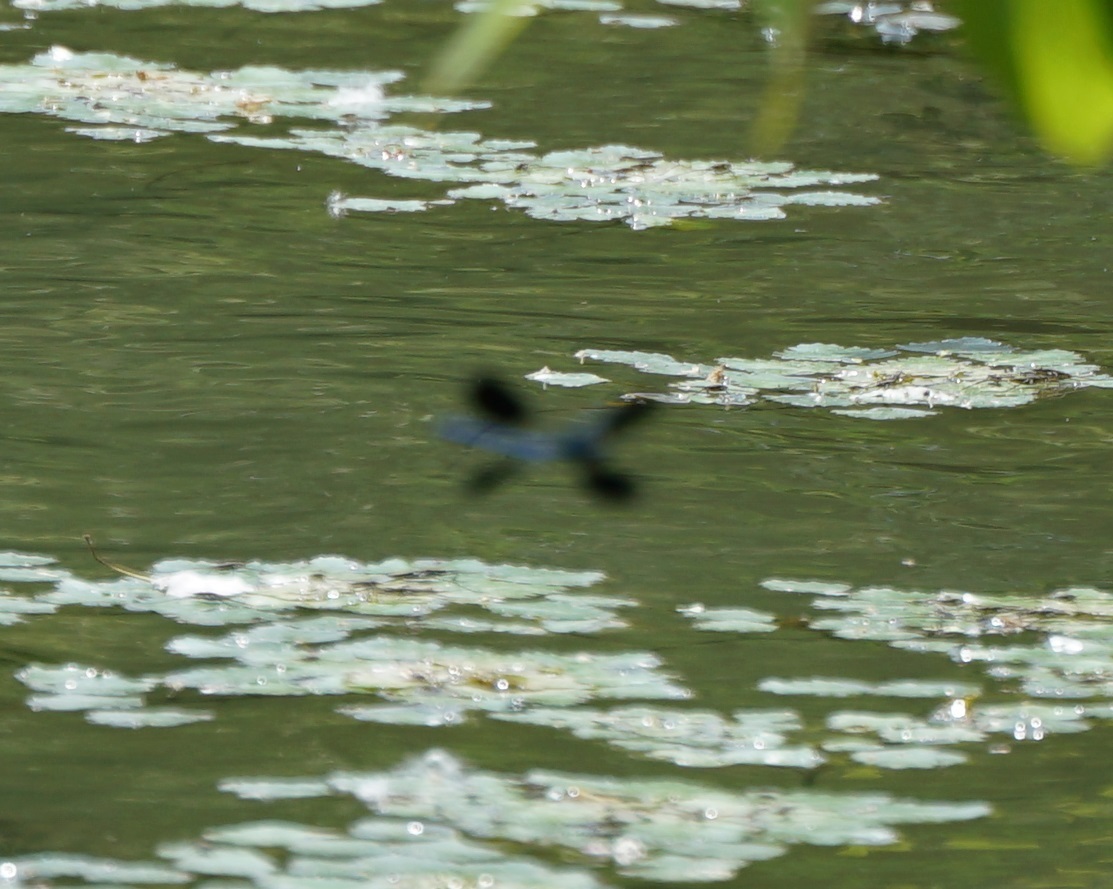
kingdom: Animalia
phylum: Arthropoda
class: Insecta
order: Odonata
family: Calopterygidae
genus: Calopteryx
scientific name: Calopteryx splendens
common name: Banded demoiselle
